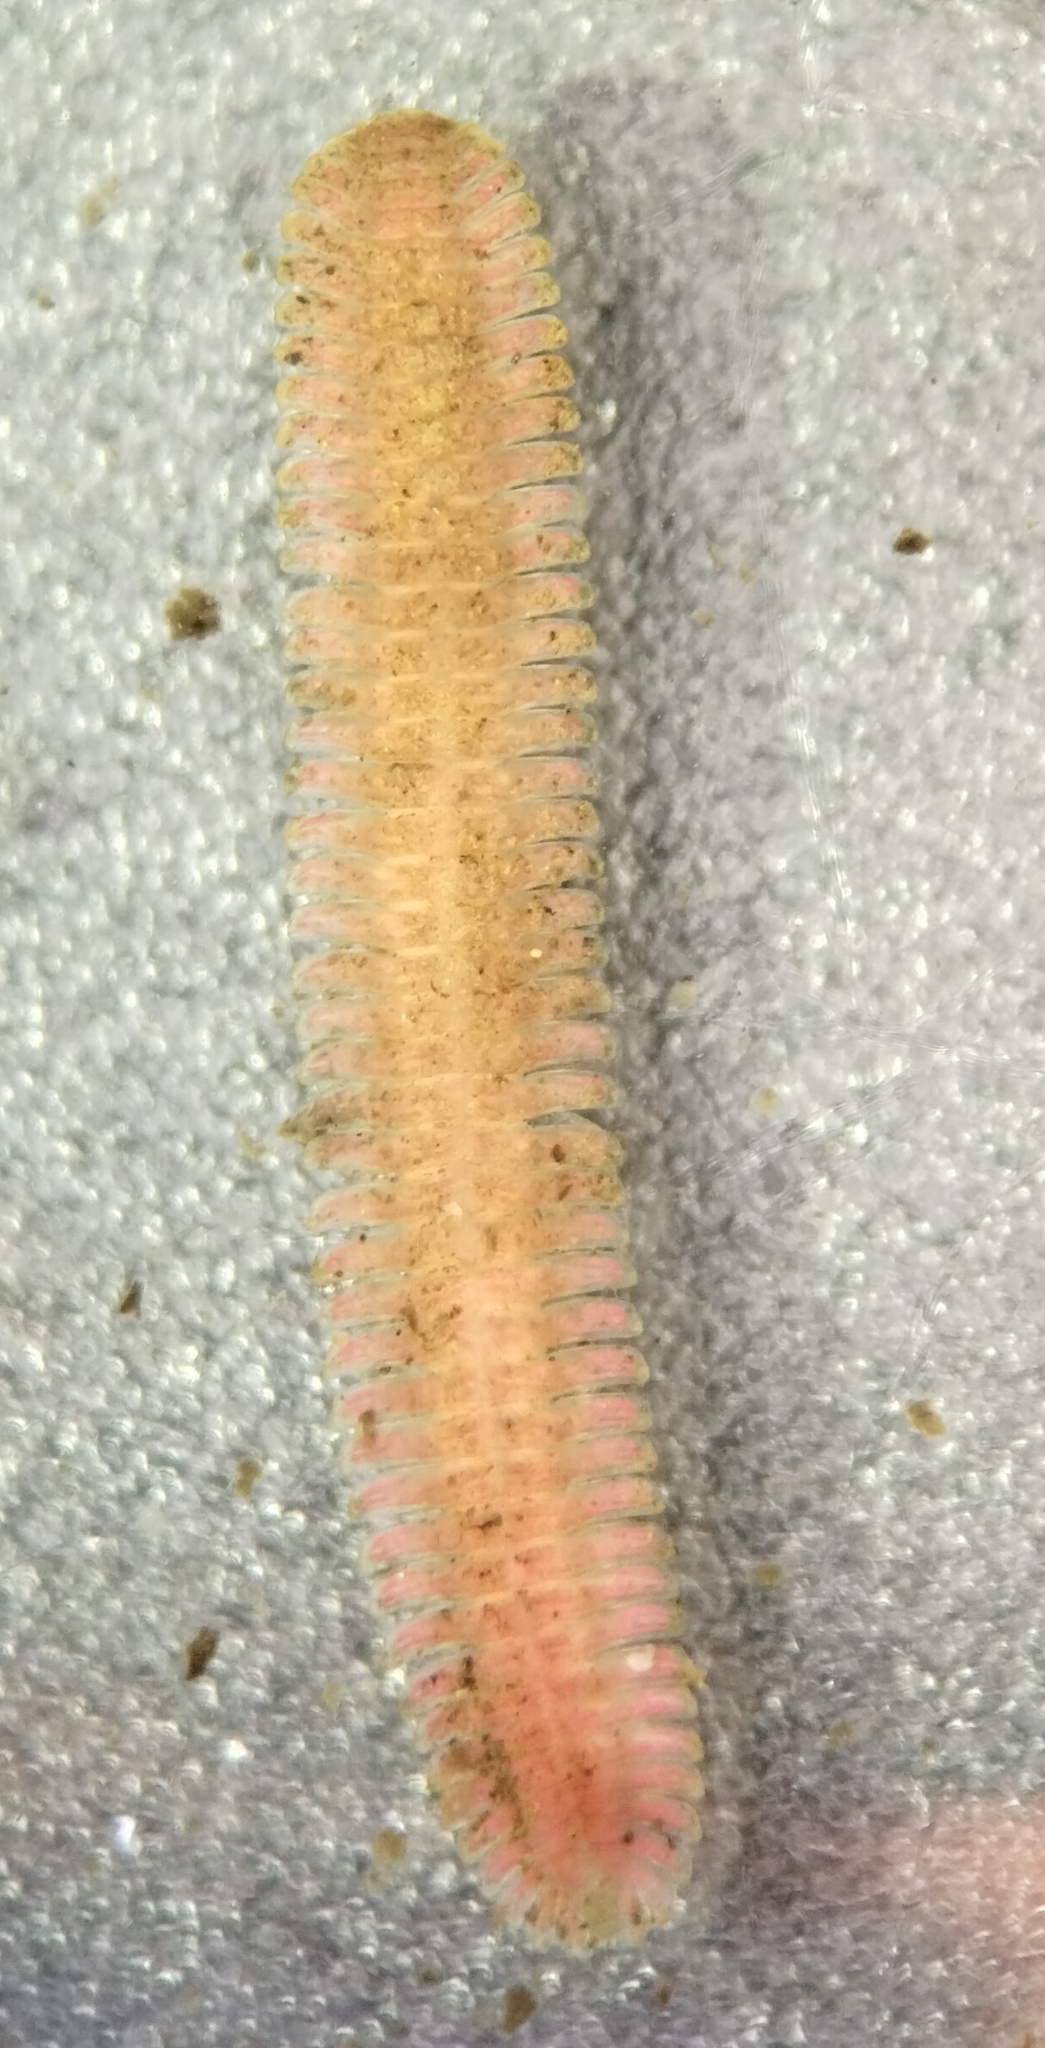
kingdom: Animalia
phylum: Arthropoda
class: Diplopoda
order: Platydesmida
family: Andrognathidae
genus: Brachycybe
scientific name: Brachycybe petasata
